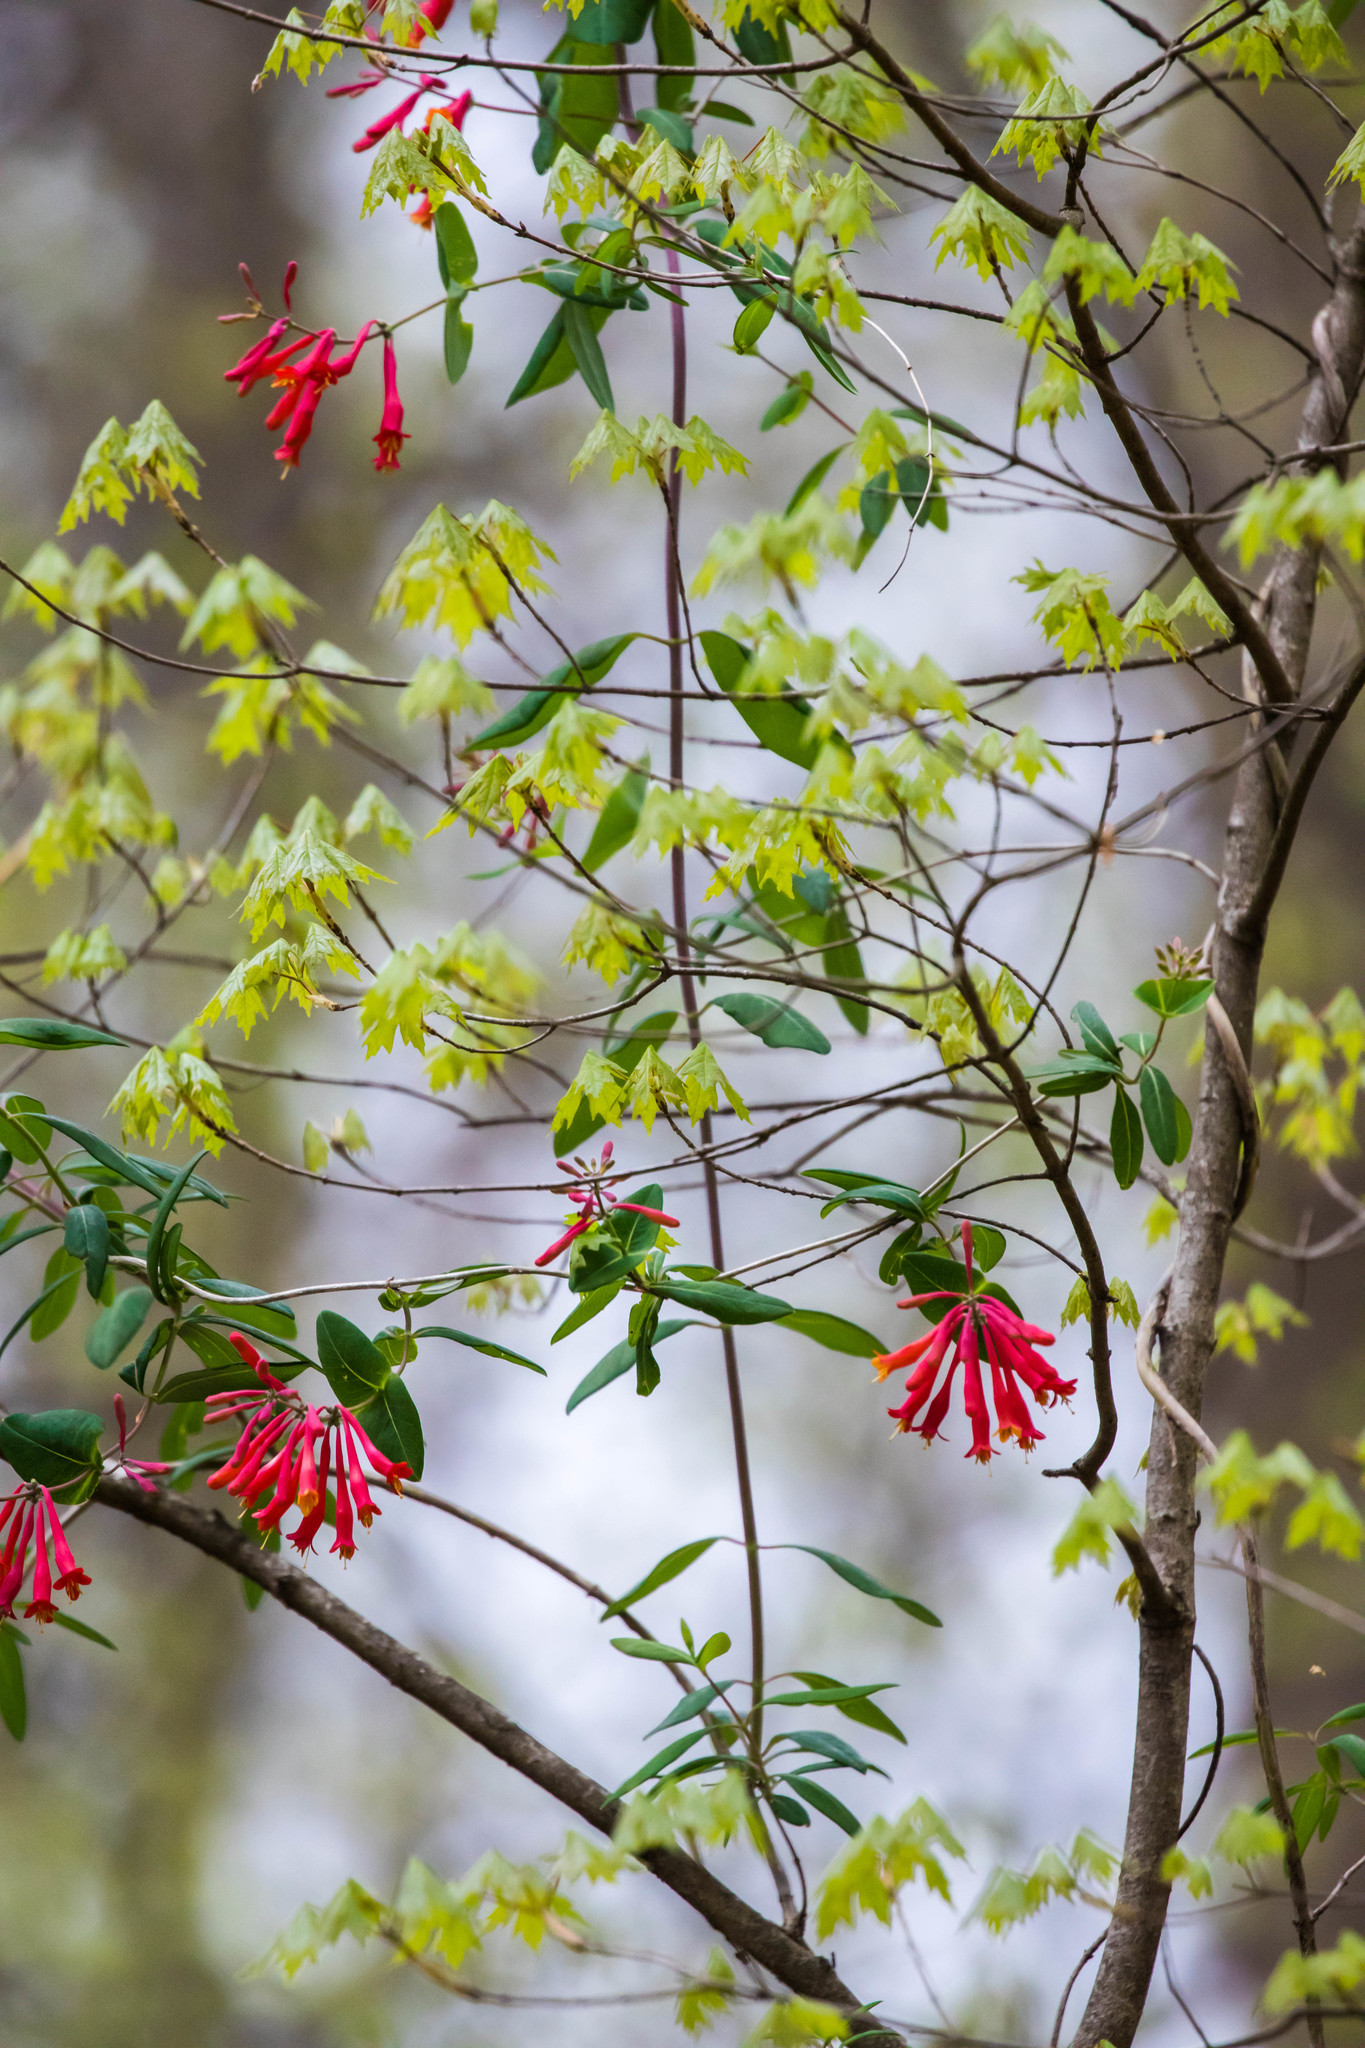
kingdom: Plantae
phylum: Tracheophyta
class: Magnoliopsida
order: Dipsacales
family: Caprifoliaceae
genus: Lonicera
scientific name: Lonicera sempervirens
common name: Coral honeysuckle
